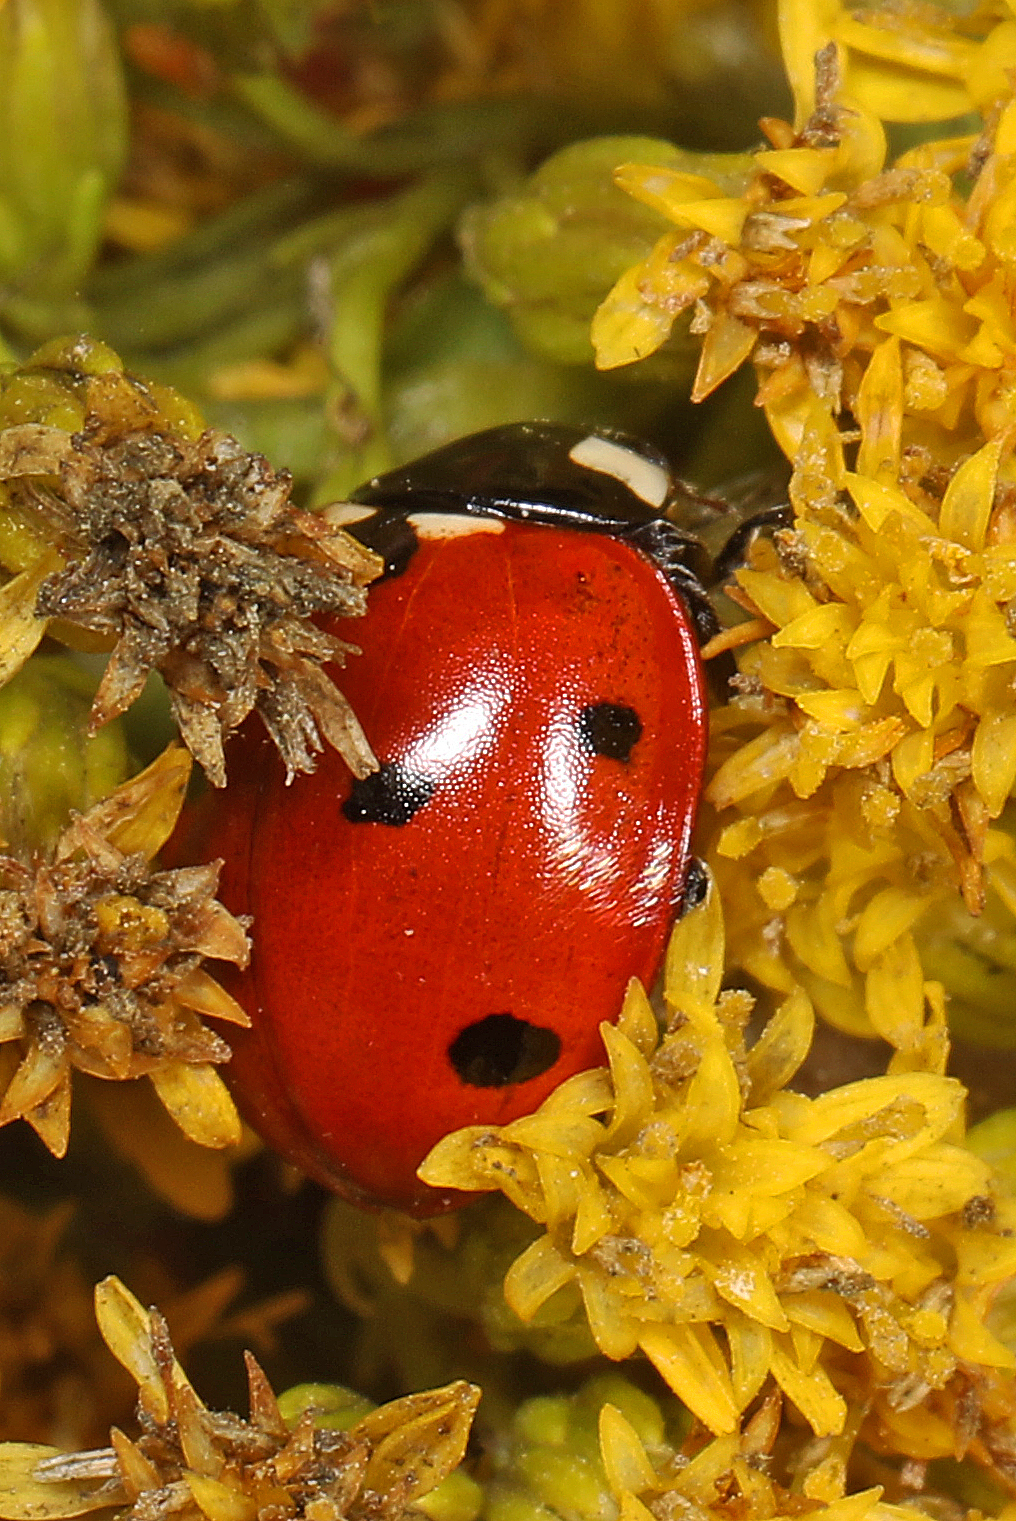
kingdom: Animalia
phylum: Arthropoda
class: Insecta
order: Coleoptera
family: Coccinellidae
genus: Coccinella
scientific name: Coccinella septempunctata
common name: Sevenspotted lady beetle
